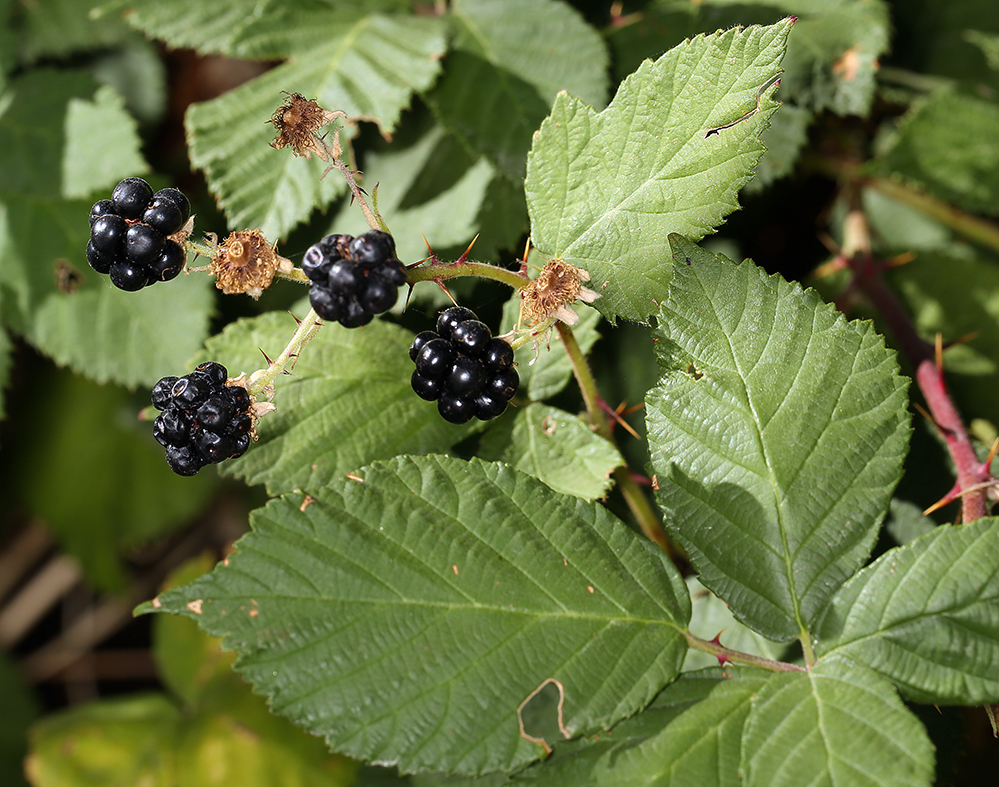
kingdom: Plantae
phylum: Tracheophyta
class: Magnoliopsida
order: Rosales
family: Rosaceae
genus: Rubus
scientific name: Rubus armeniacus
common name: Himalayan blackberry
